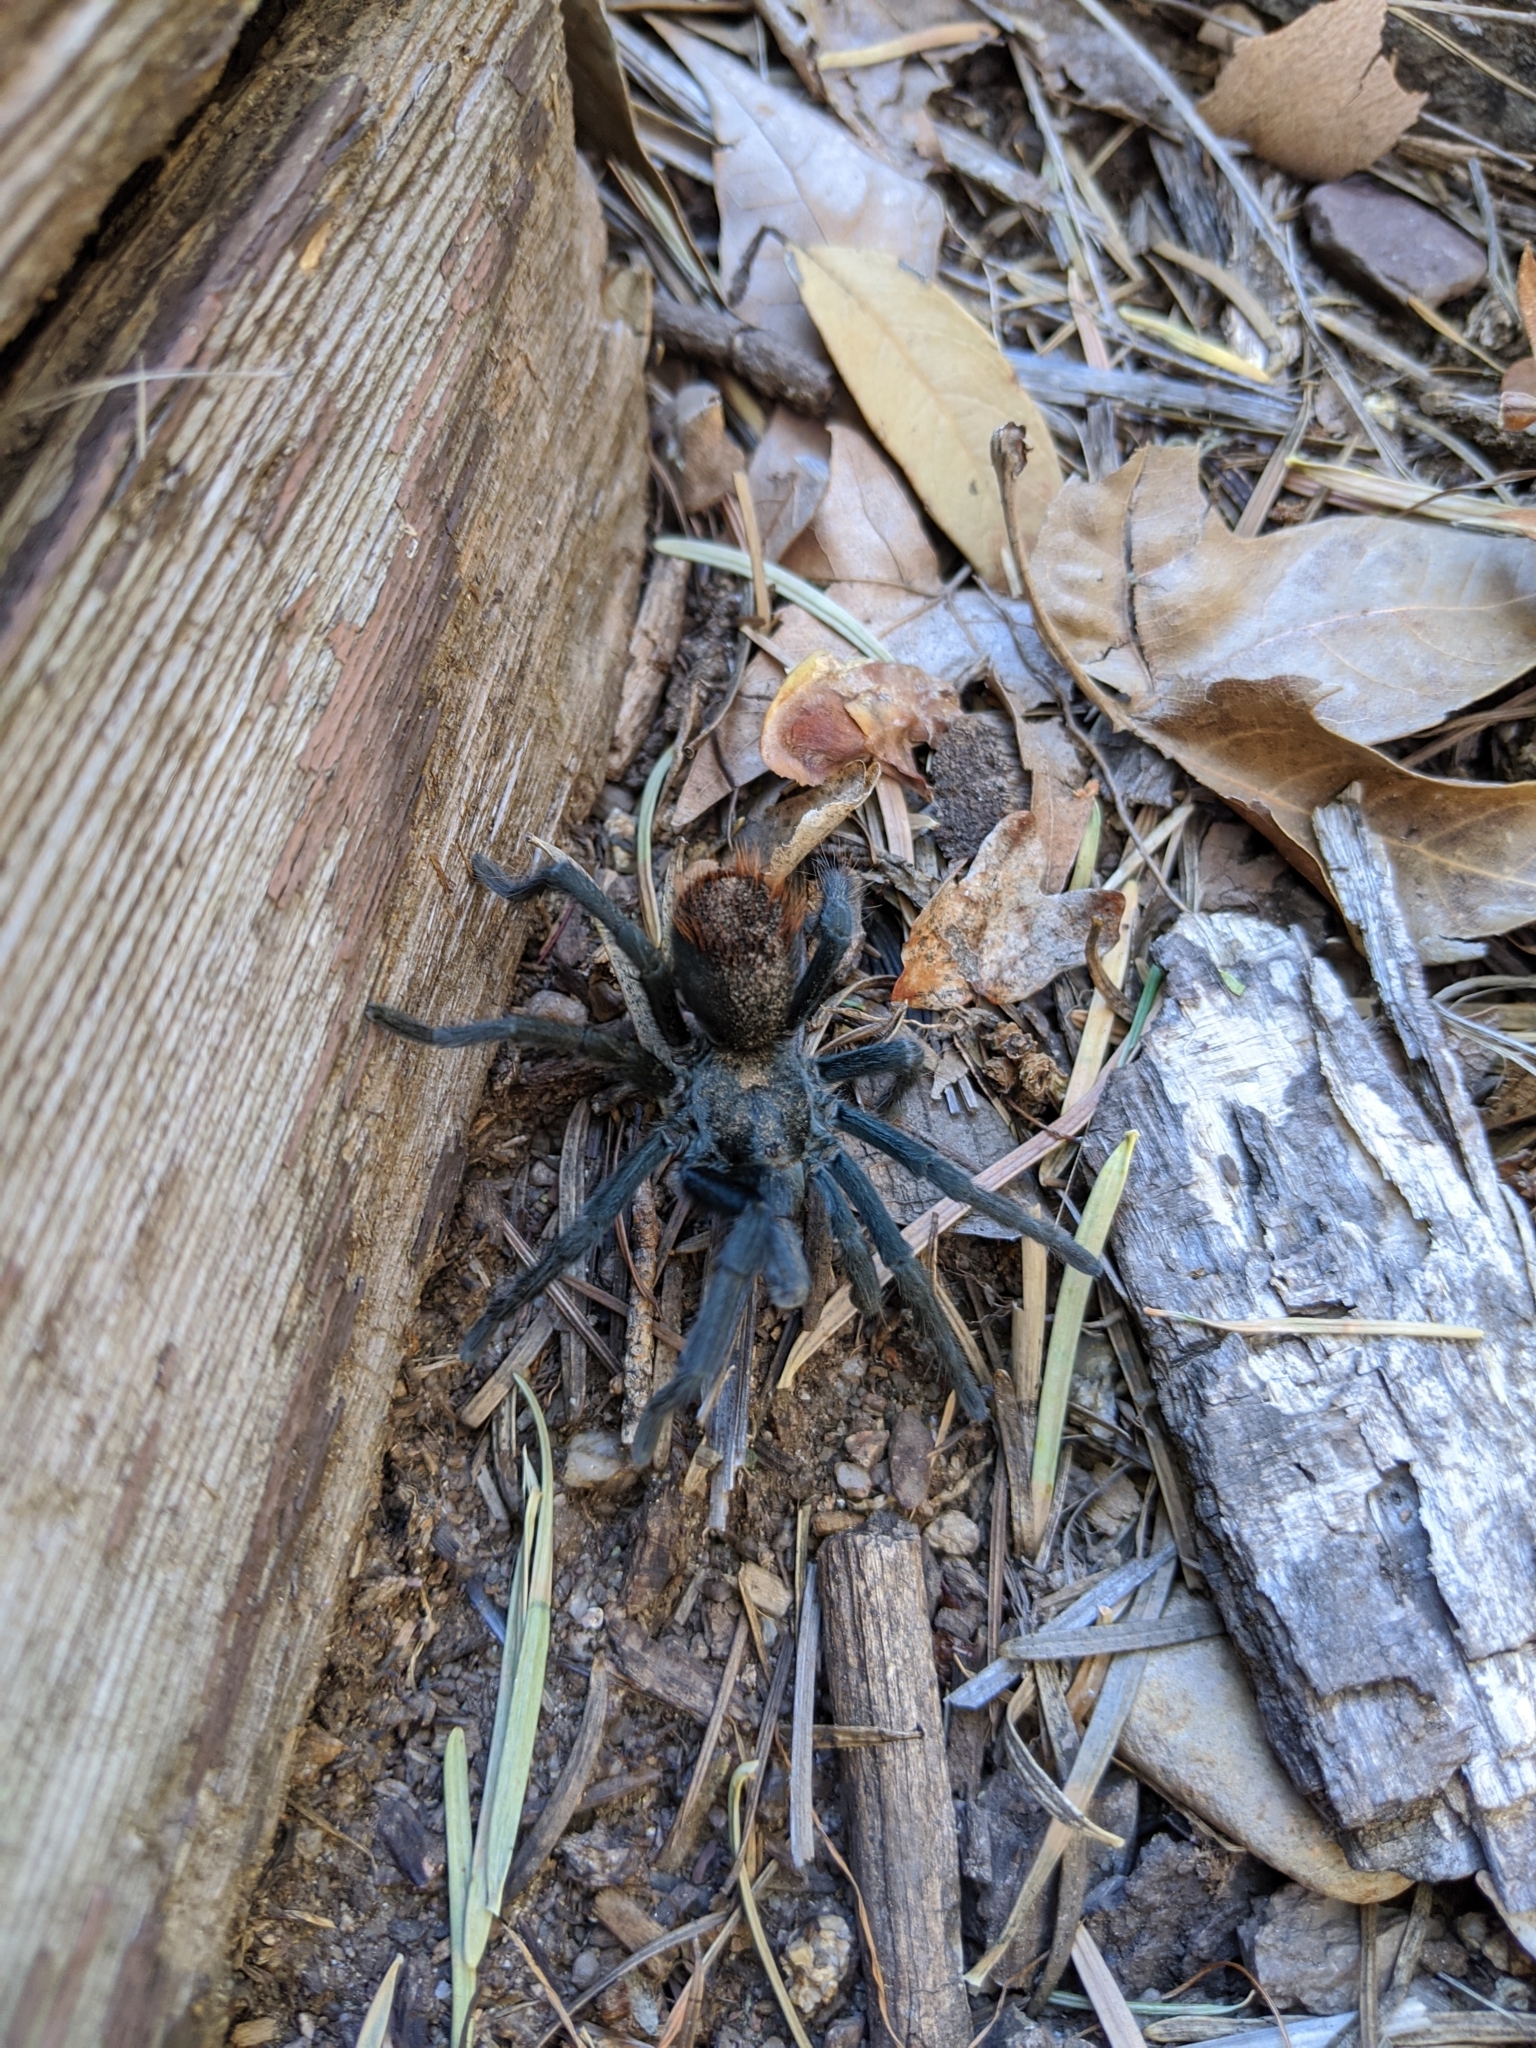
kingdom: Animalia
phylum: Arthropoda
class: Arachnida
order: Araneae
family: Theraphosidae
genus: Aphonopelma
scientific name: Aphonopelma madera
